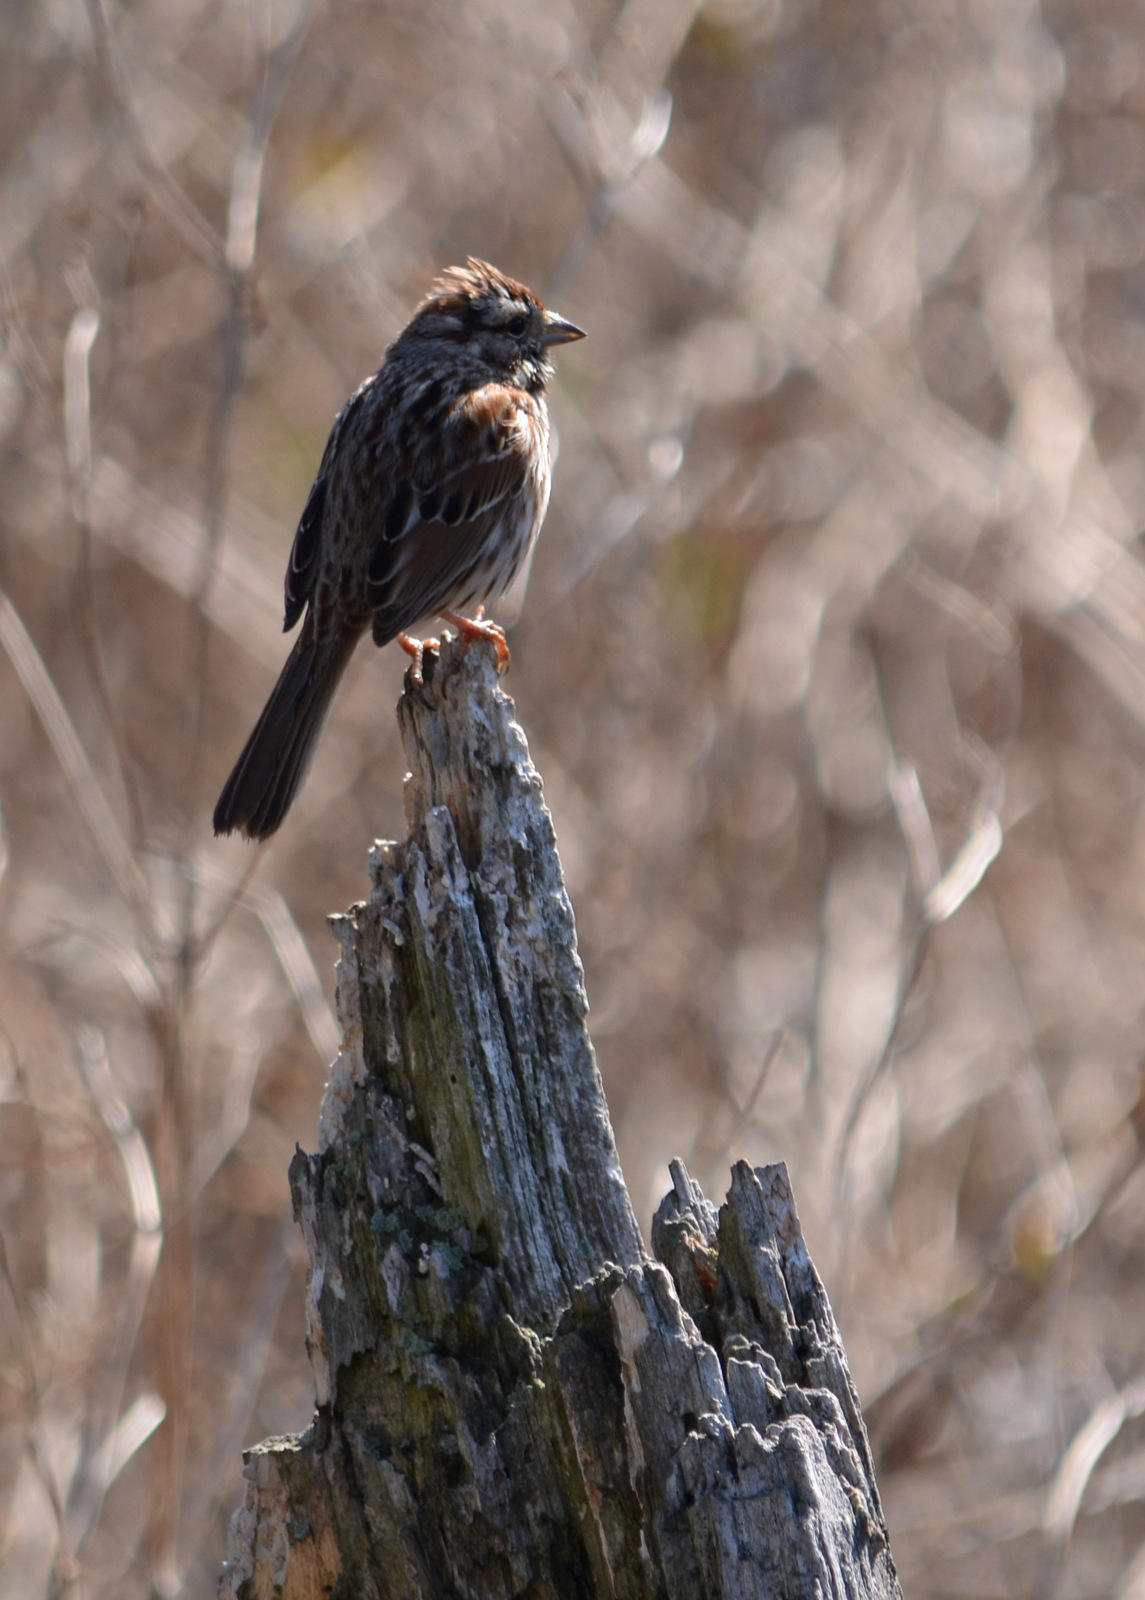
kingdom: Animalia
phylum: Chordata
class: Aves
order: Passeriformes
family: Passerellidae
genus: Melospiza
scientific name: Melospiza melodia
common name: Song sparrow
